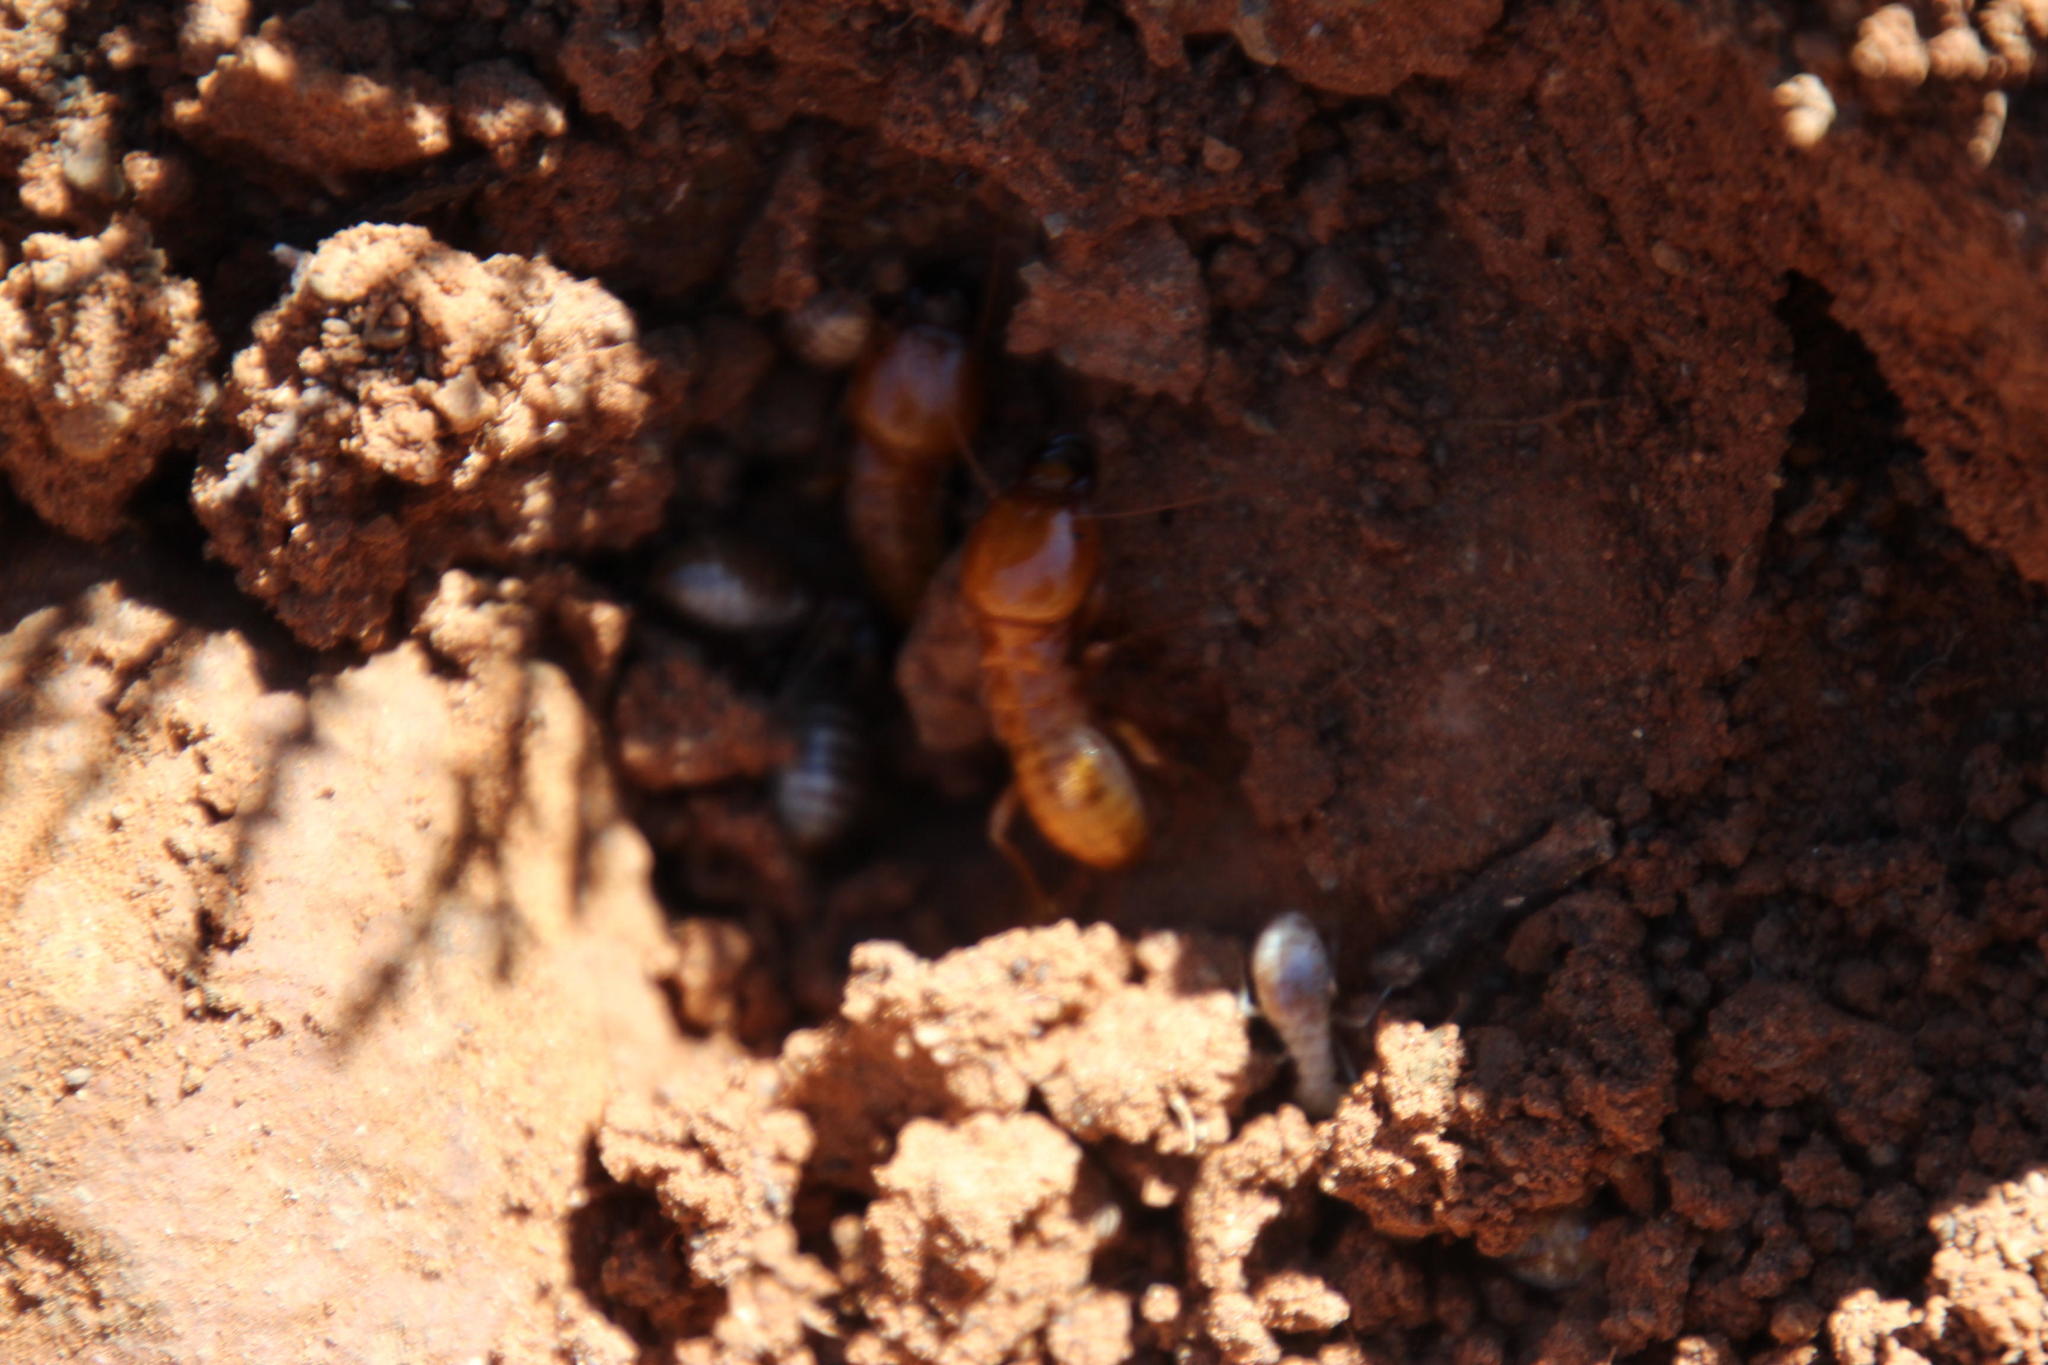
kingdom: Animalia
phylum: Arthropoda
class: Insecta
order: Blattodea
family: Hodotermitidae
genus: Hodotermes
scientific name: Hodotermes mossambicus
